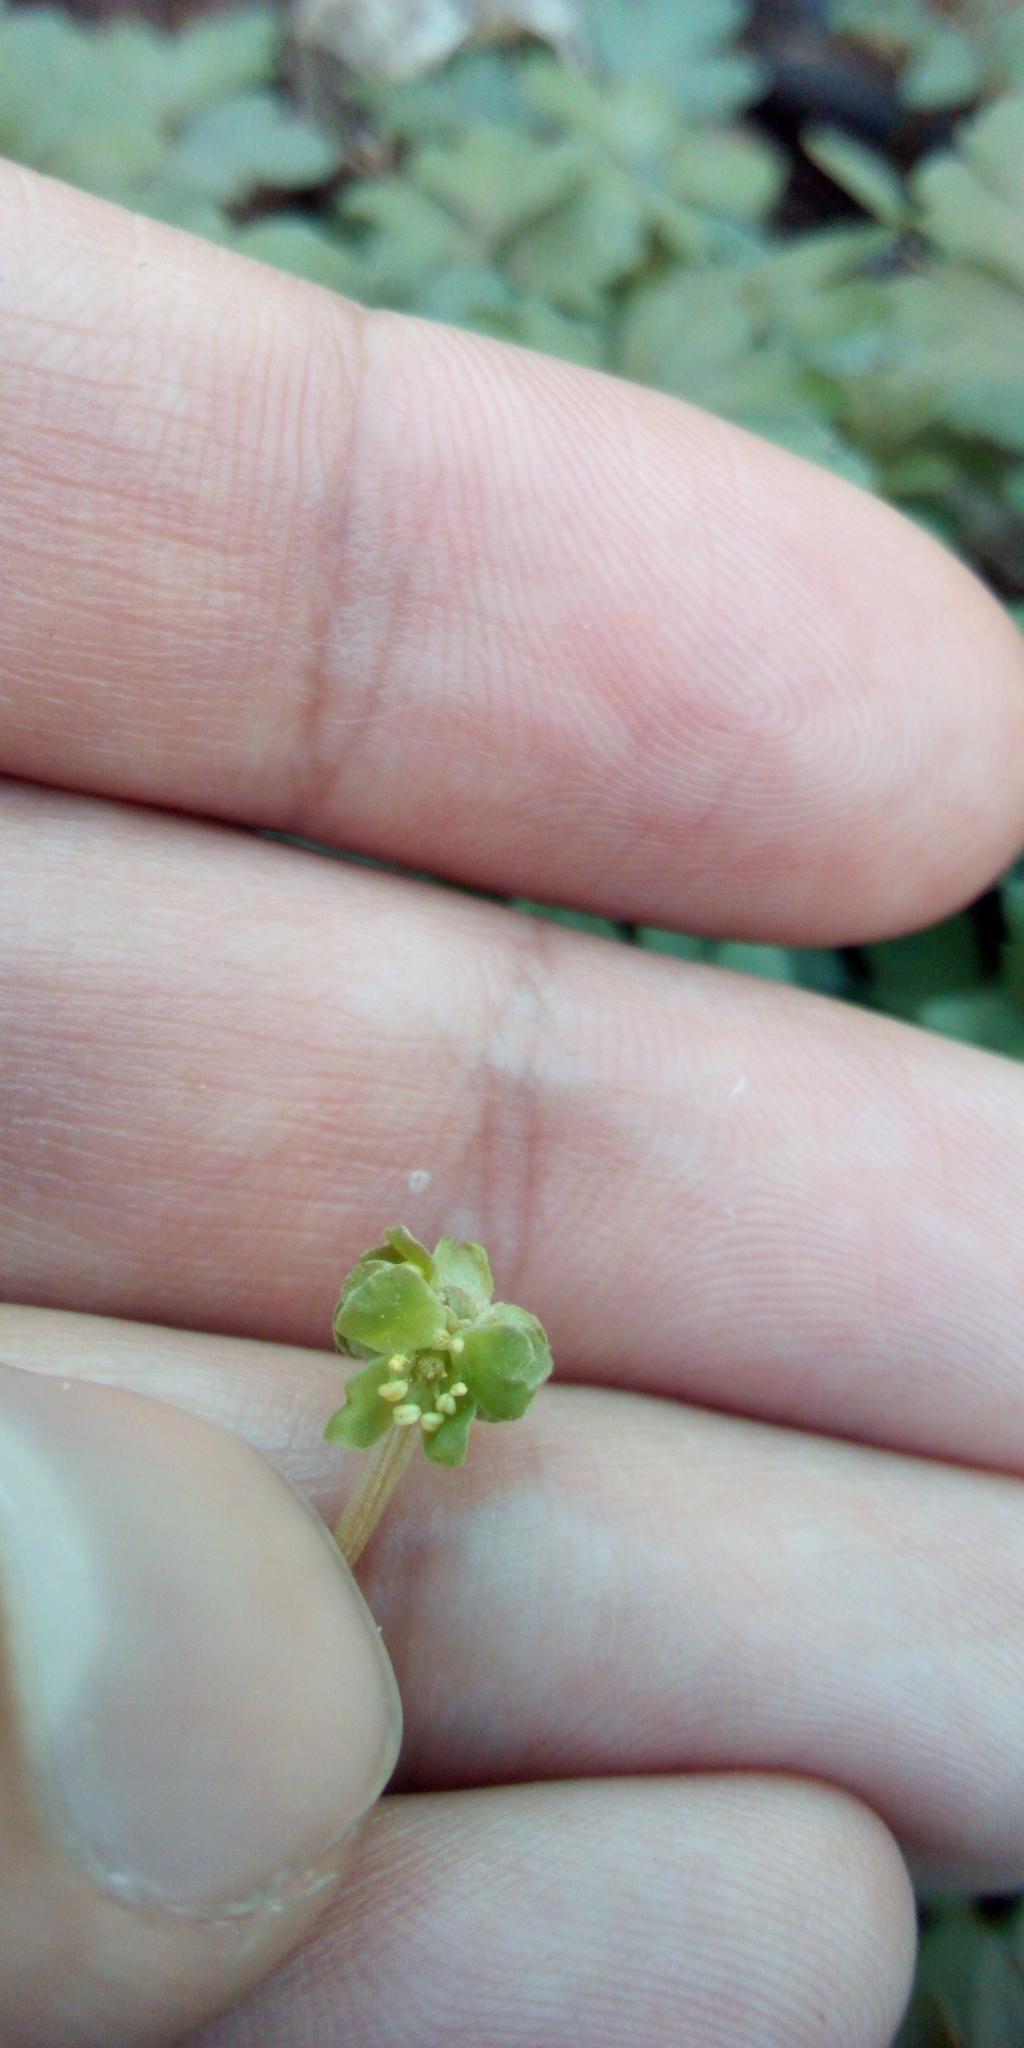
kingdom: Plantae
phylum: Tracheophyta
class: Magnoliopsida
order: Dipsacales
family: Viburnaceae
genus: Adoxa
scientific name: Adoxa moschatellina
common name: Moschatel
